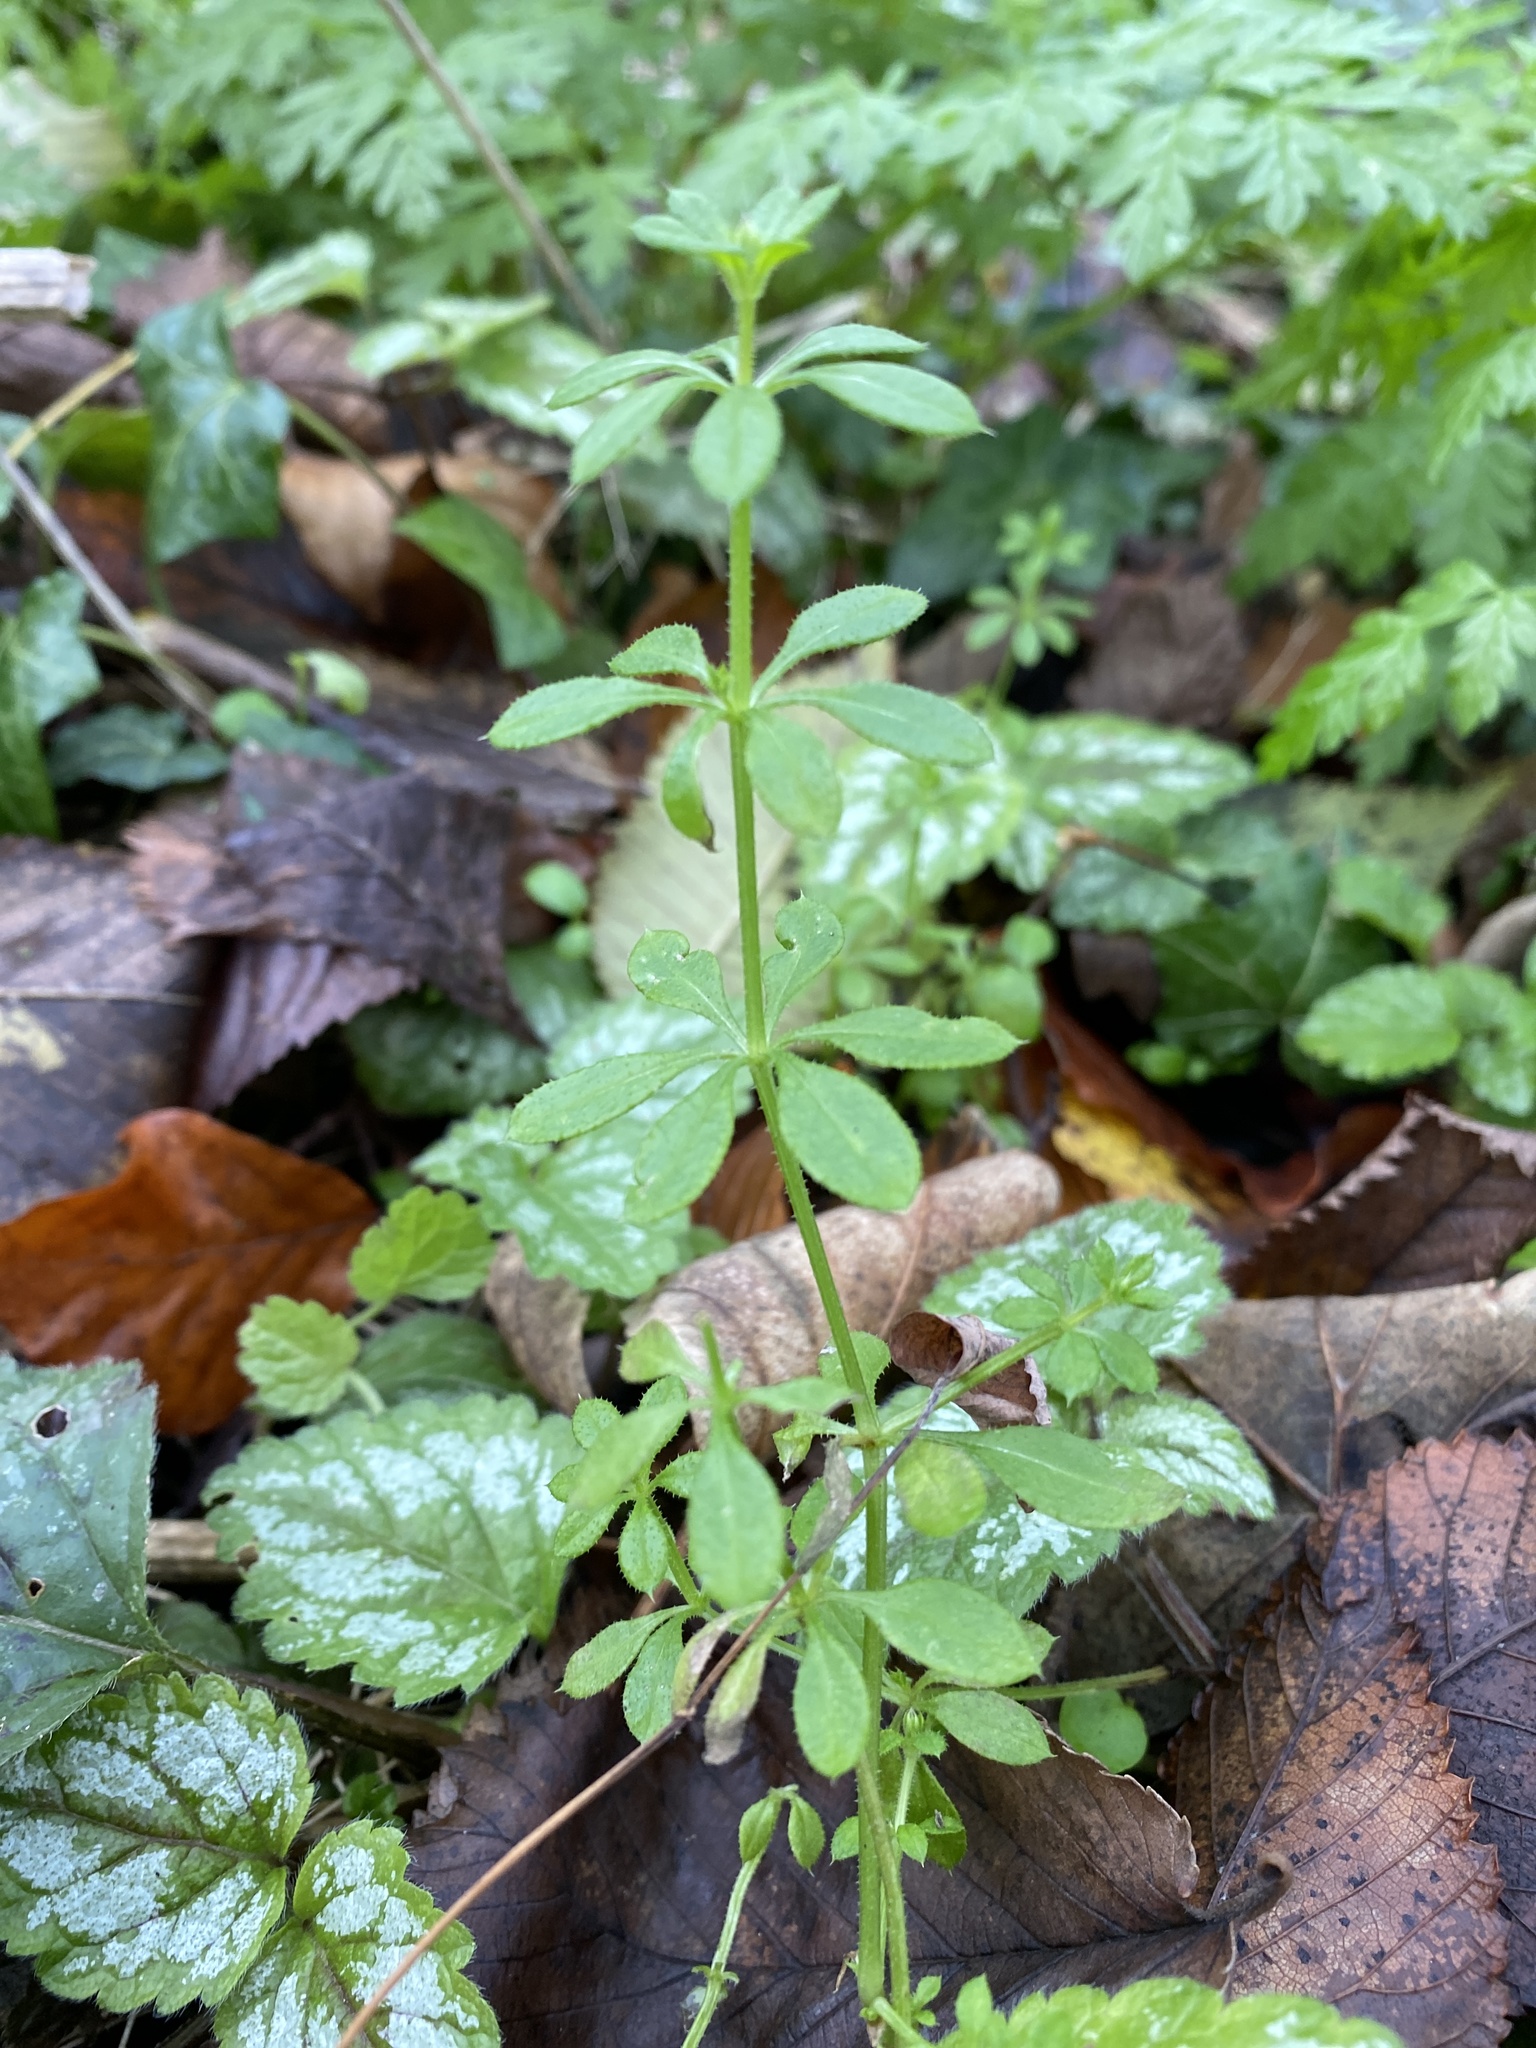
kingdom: Plantae
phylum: Tracheophyta
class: Magnoliopsida
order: Gentianales
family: Rubiaceae
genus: Galium
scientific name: Galium aparine
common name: Cleavers
